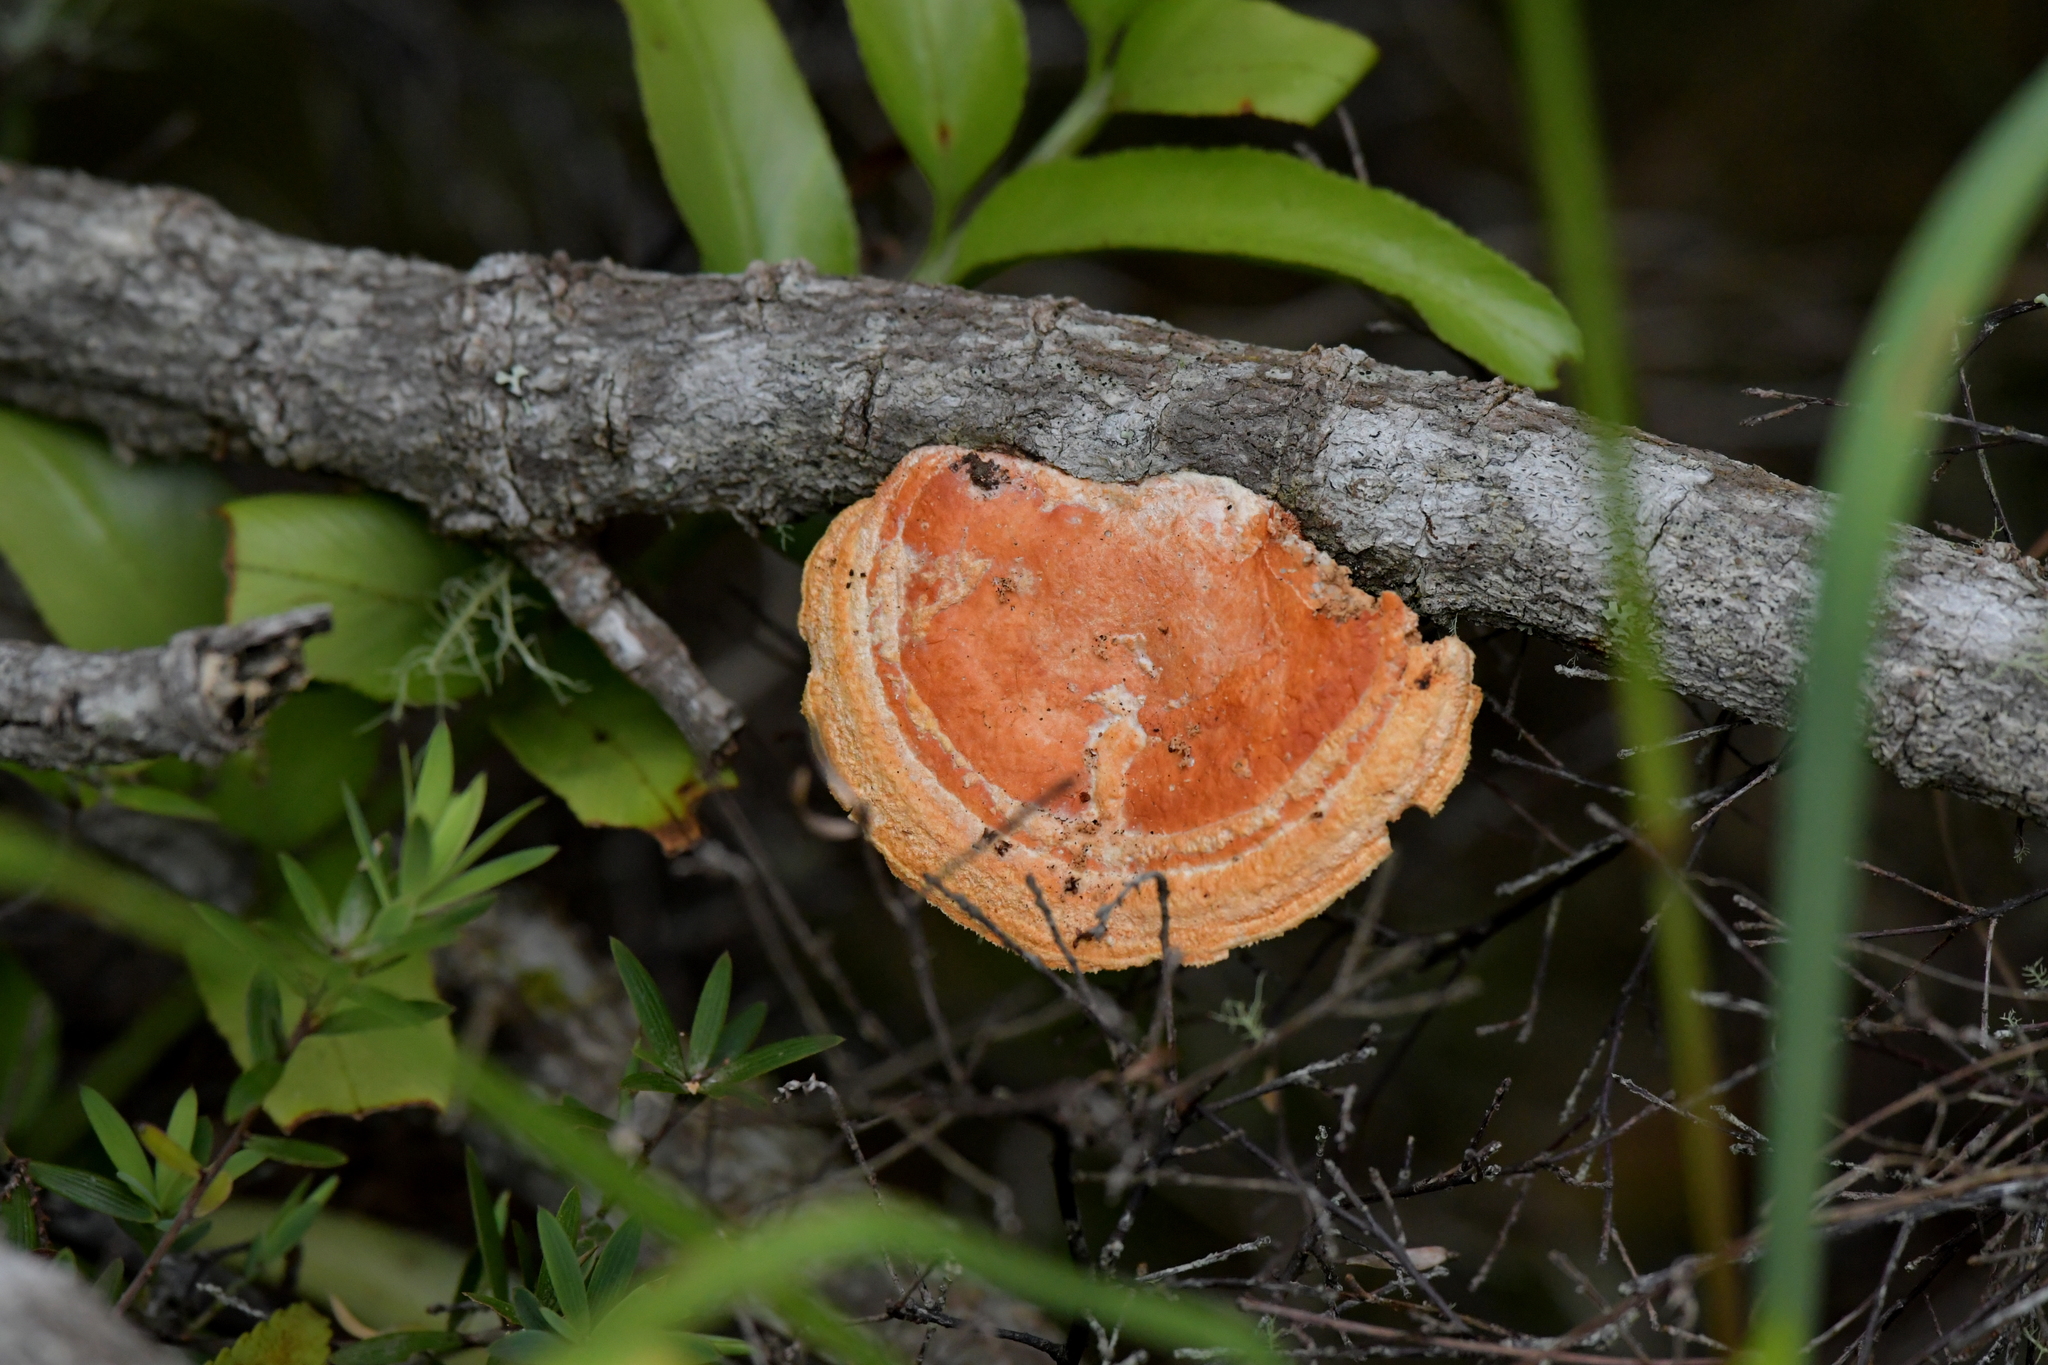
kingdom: Fungi
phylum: Basidiomycota
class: Agaricomycetes
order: Polyporales
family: Polyporaceae
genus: Trametes
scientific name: Trametes coccinea
